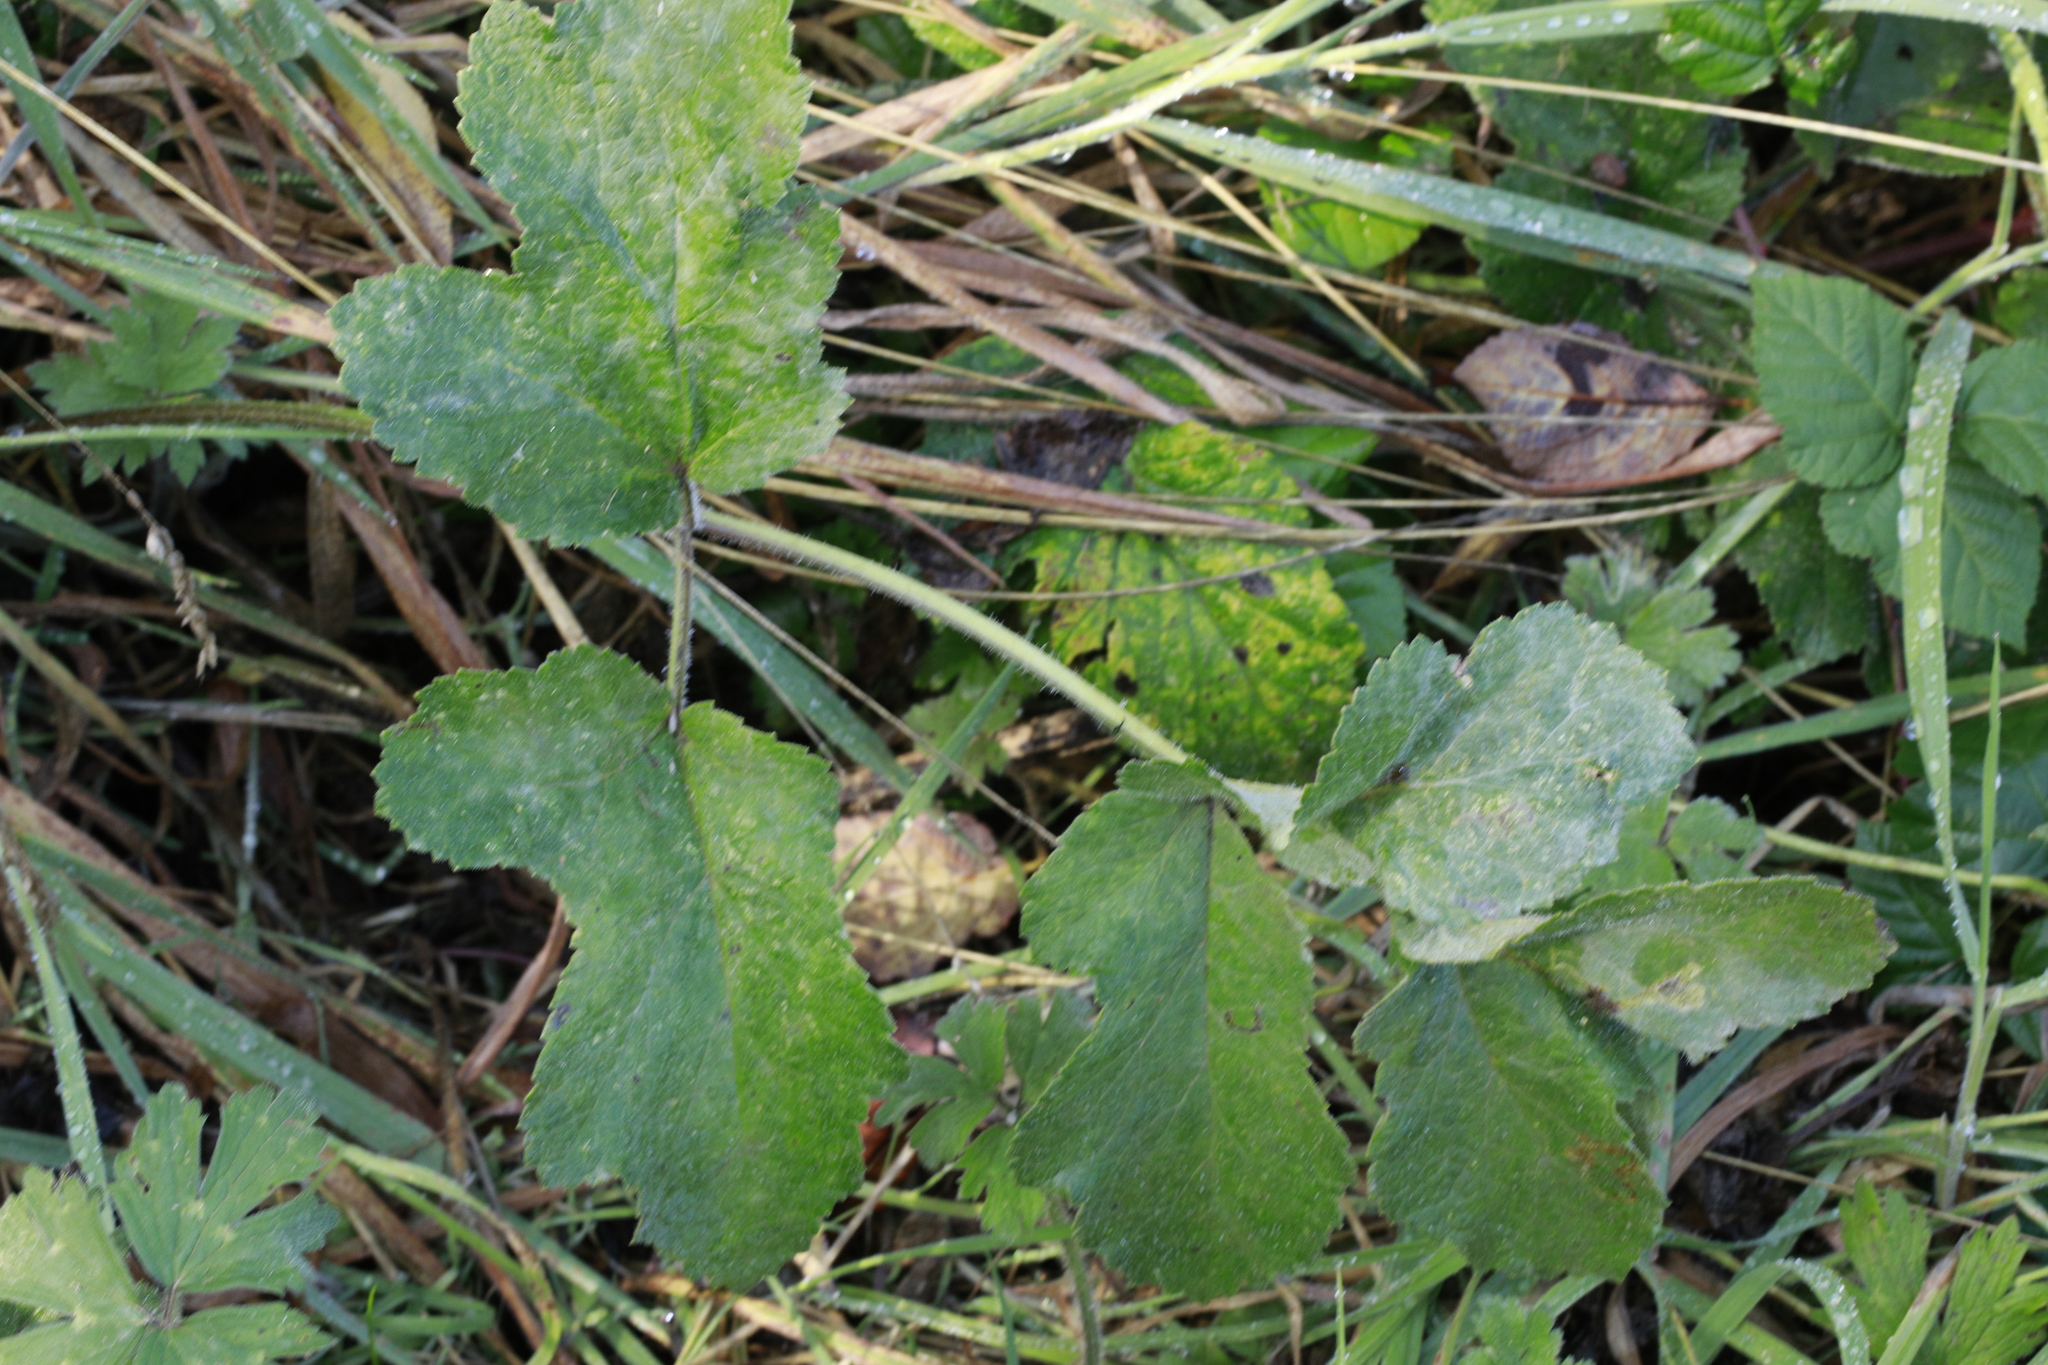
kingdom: Plantae
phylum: Tracheophyta
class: Magnoliopsida
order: Apiales
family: Apiaceae
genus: Heracleum
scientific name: Heracleum sphondylium
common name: Hogweed
